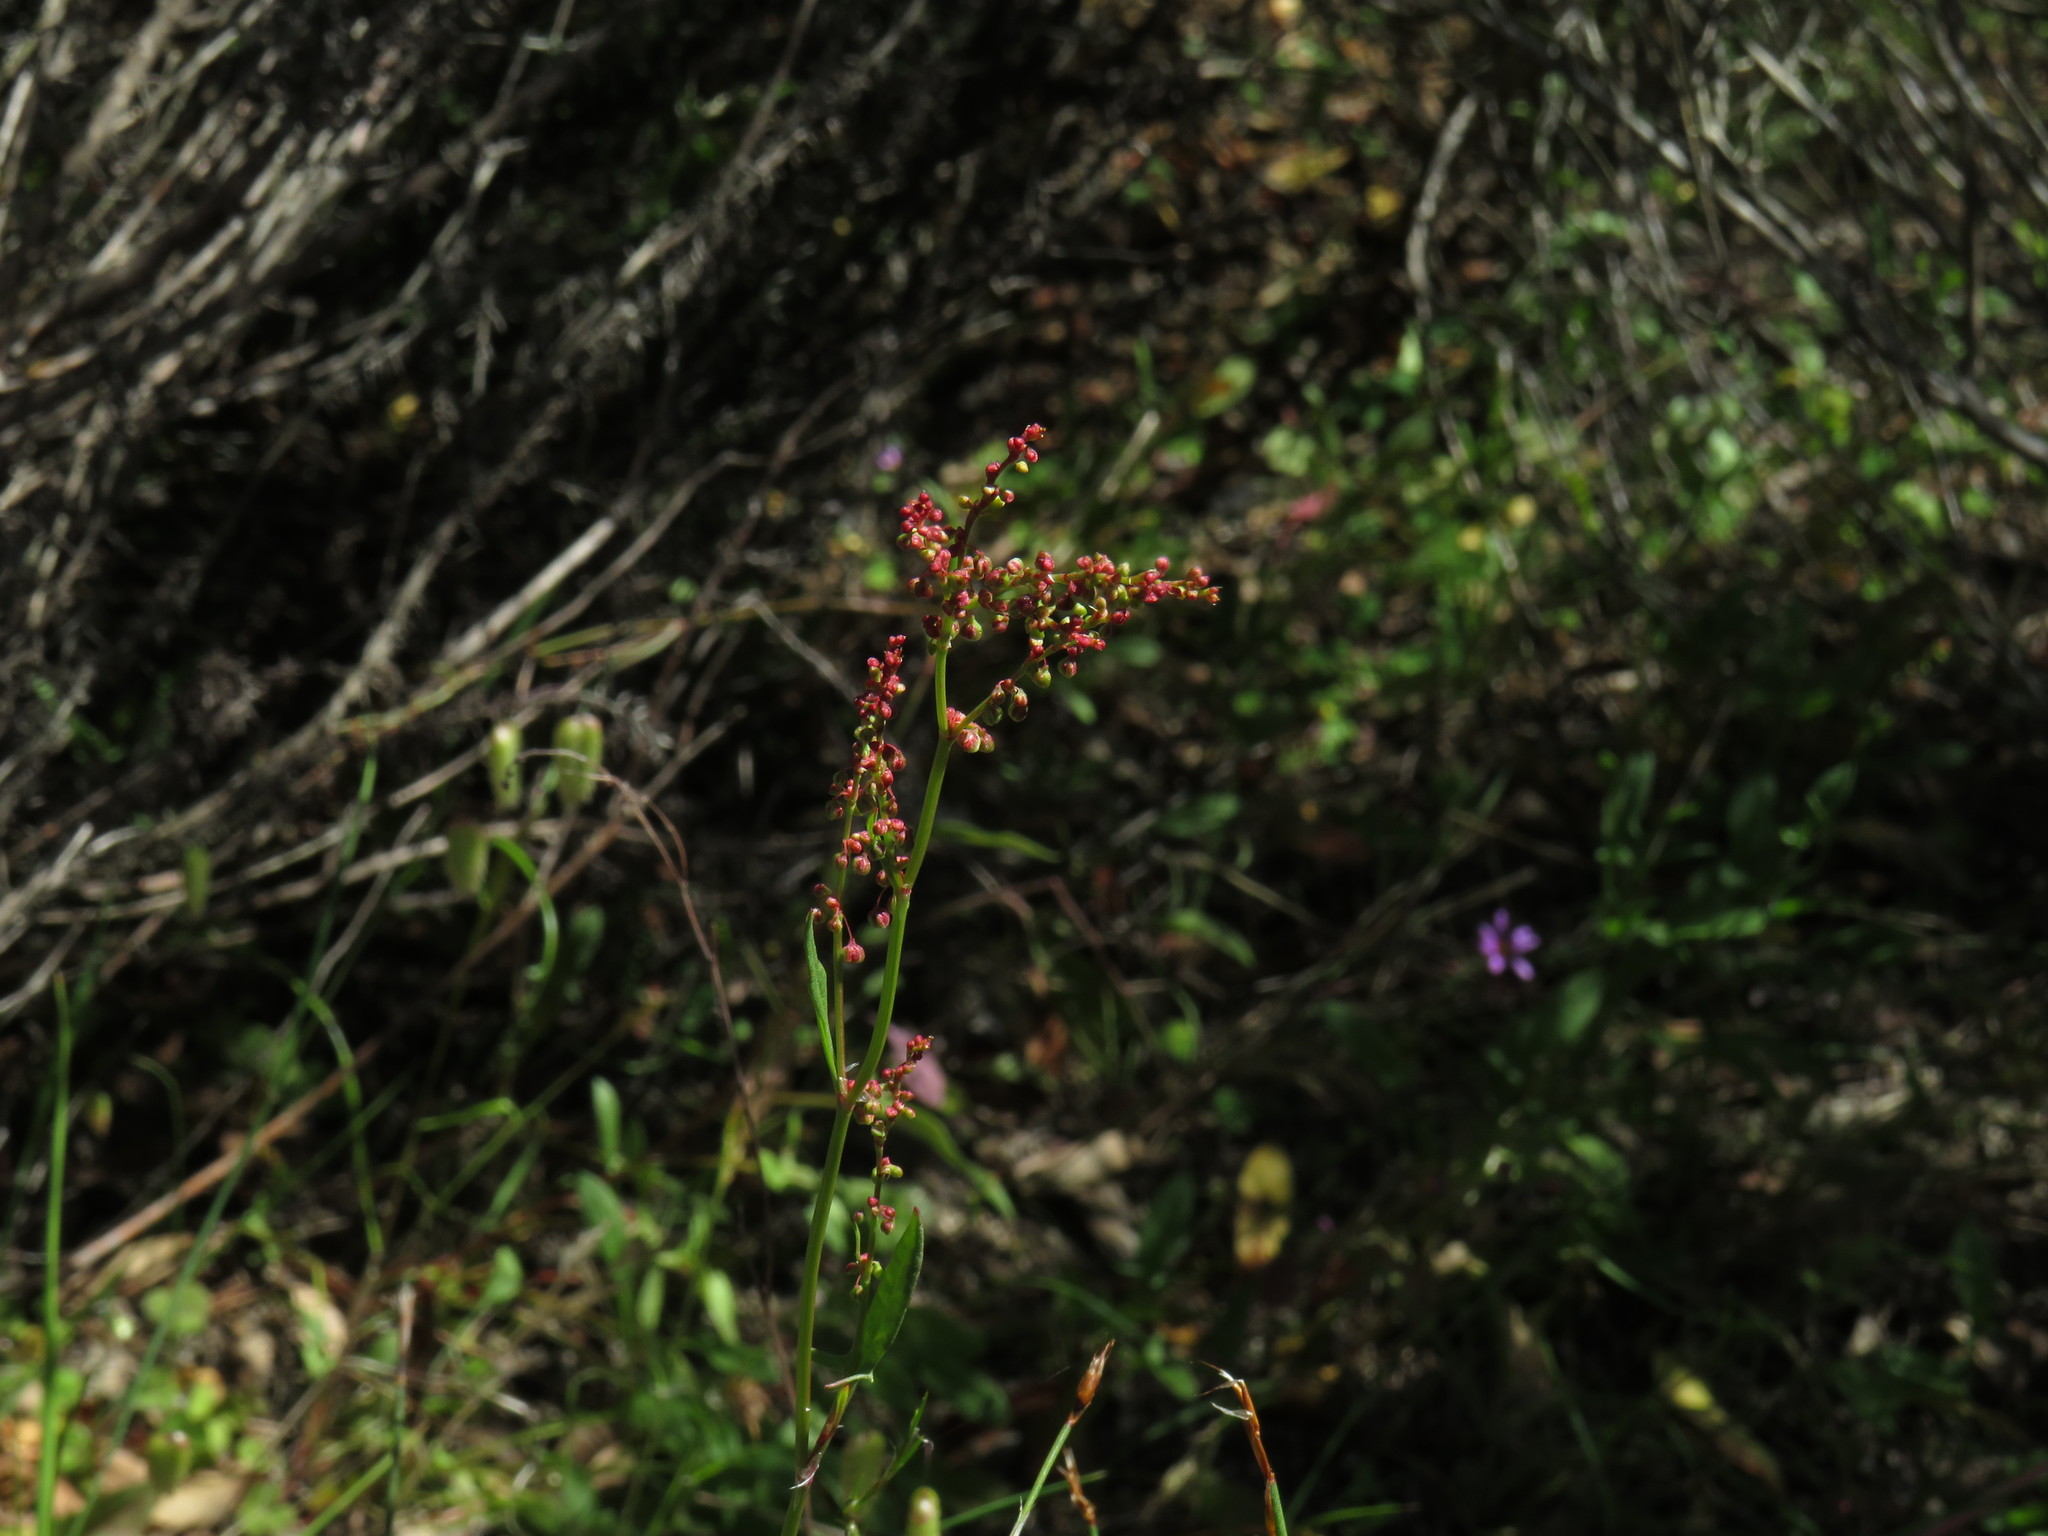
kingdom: Plantae
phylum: Tracheophyta
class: Magnoliopsida
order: Caryophyllales
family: Polygonaceae
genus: Rumex
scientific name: Rumex acetosella
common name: Common sheep sorrel
